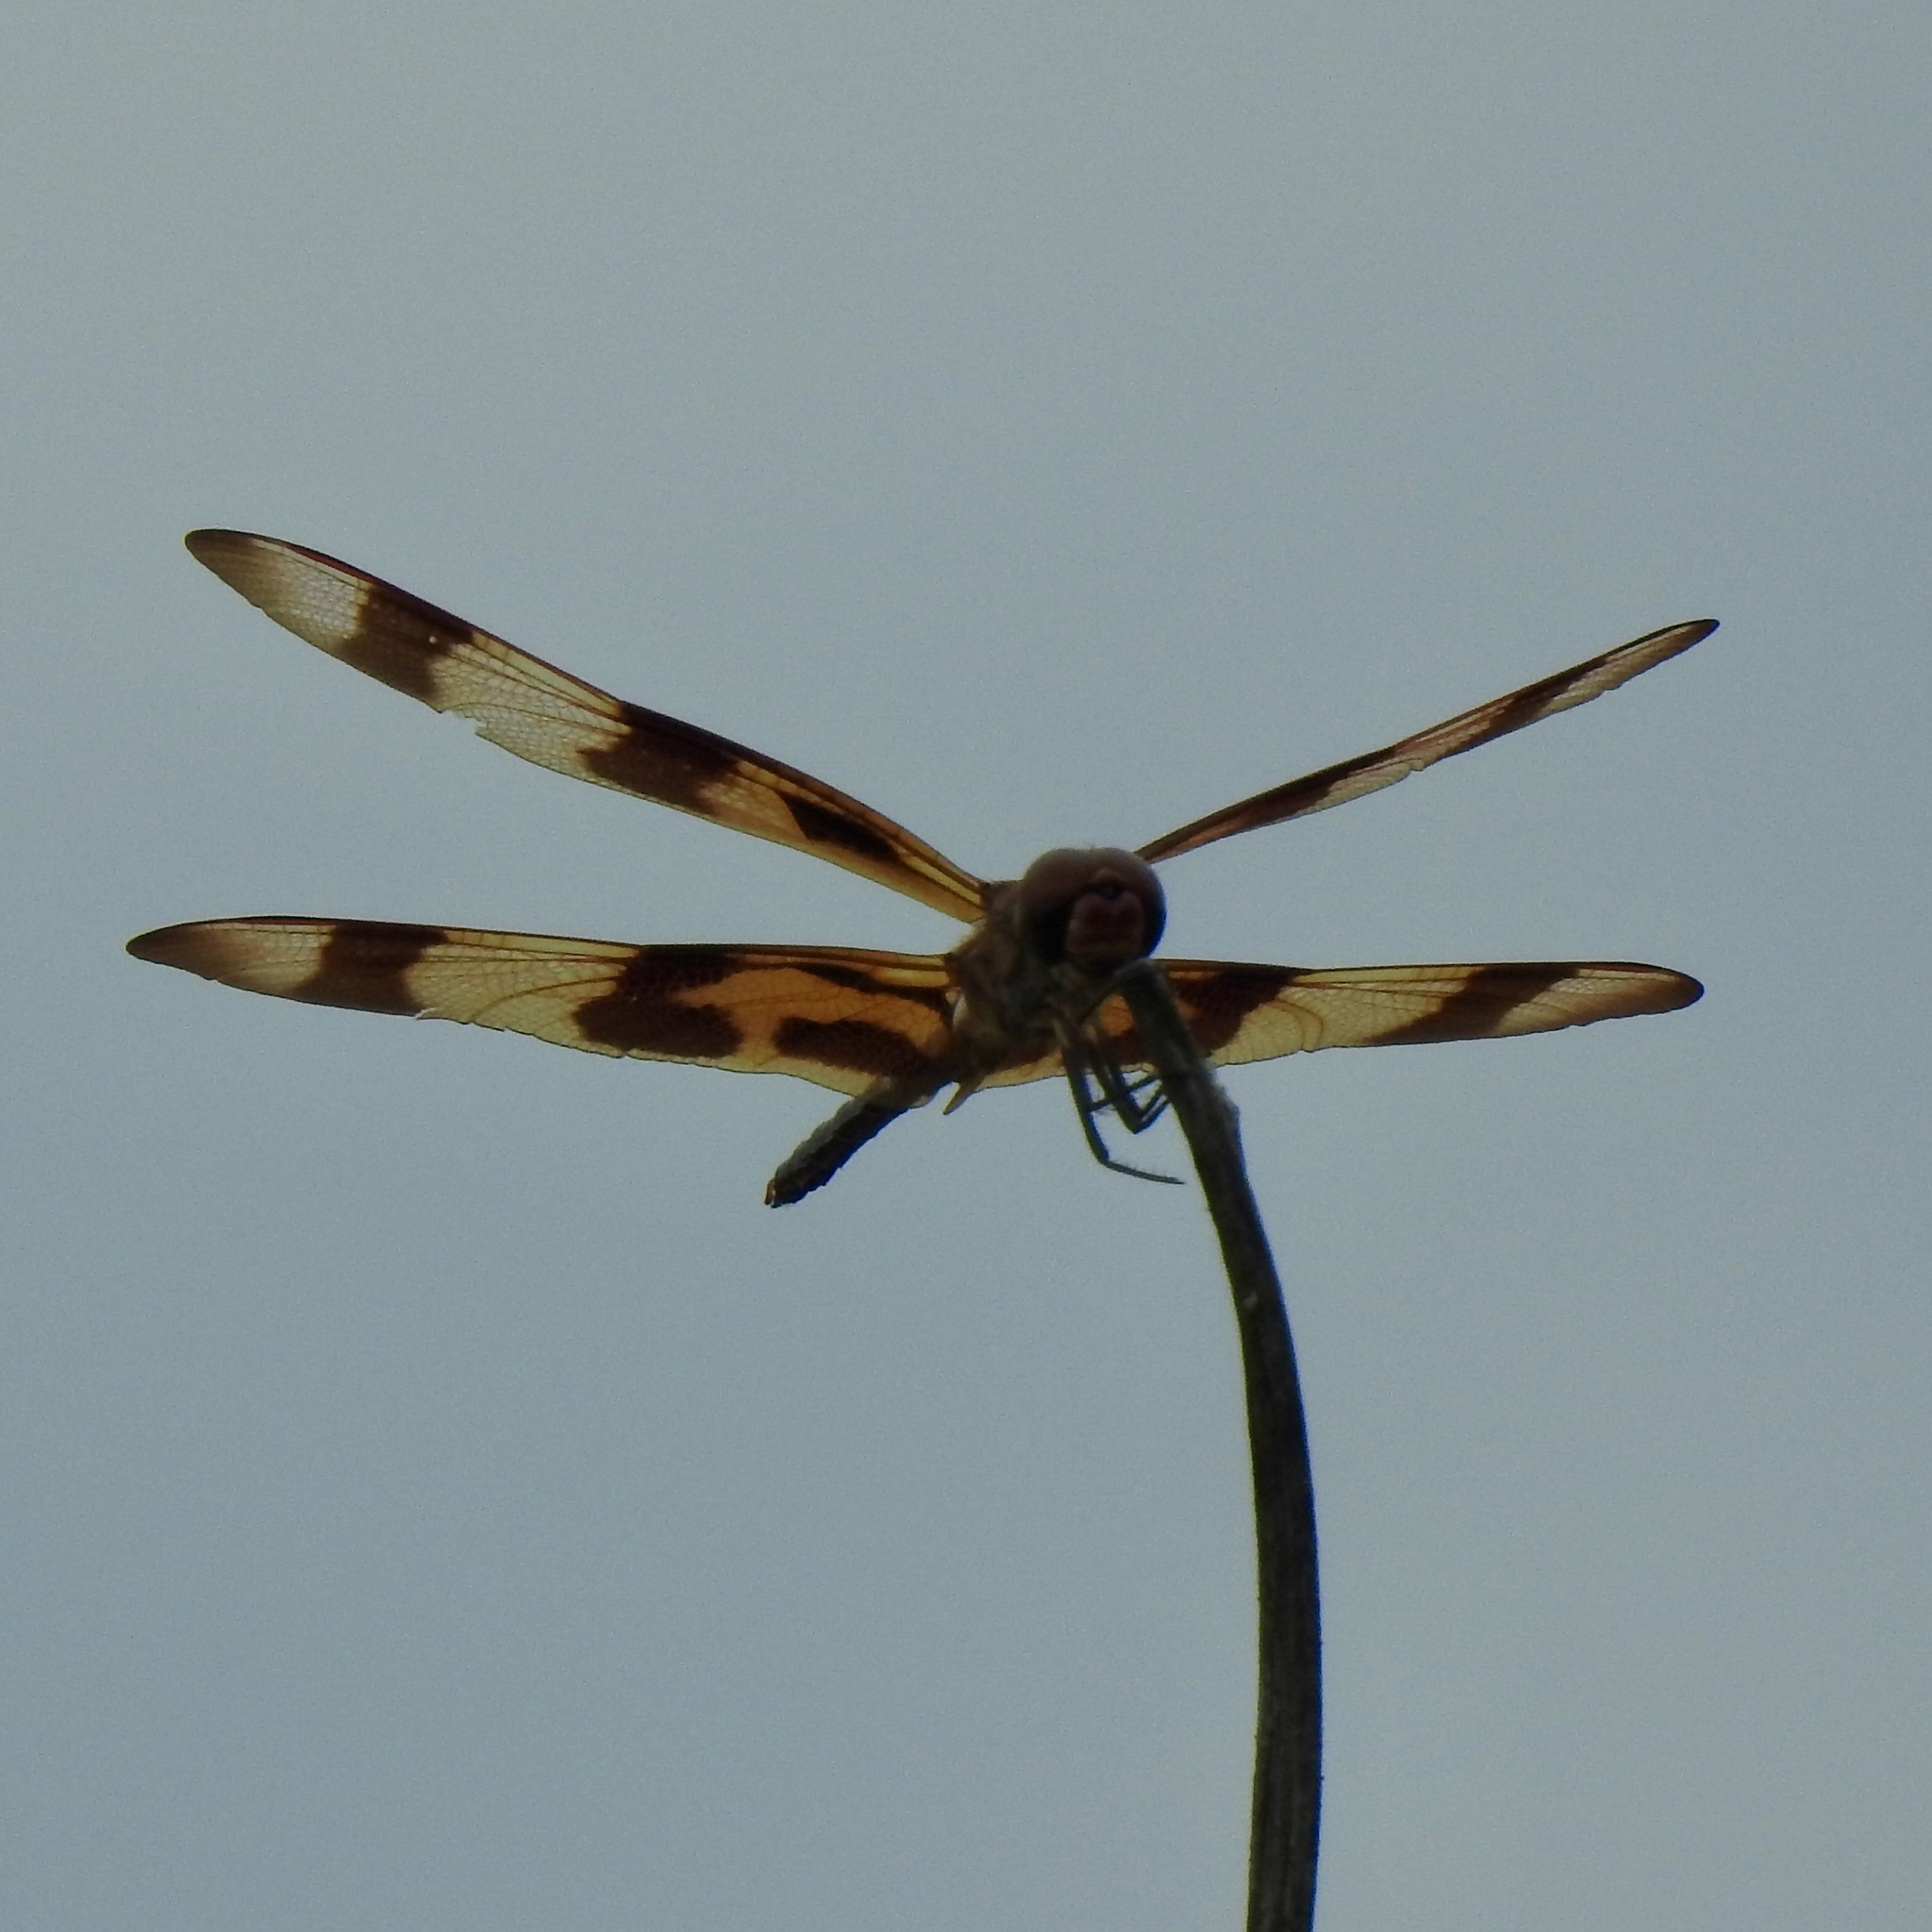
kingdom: Animalia
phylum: Arthropoda
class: Insecta
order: Odonata
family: Libellulidae
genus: Celithemis
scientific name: Celithemis eponina
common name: Halloween pennant
